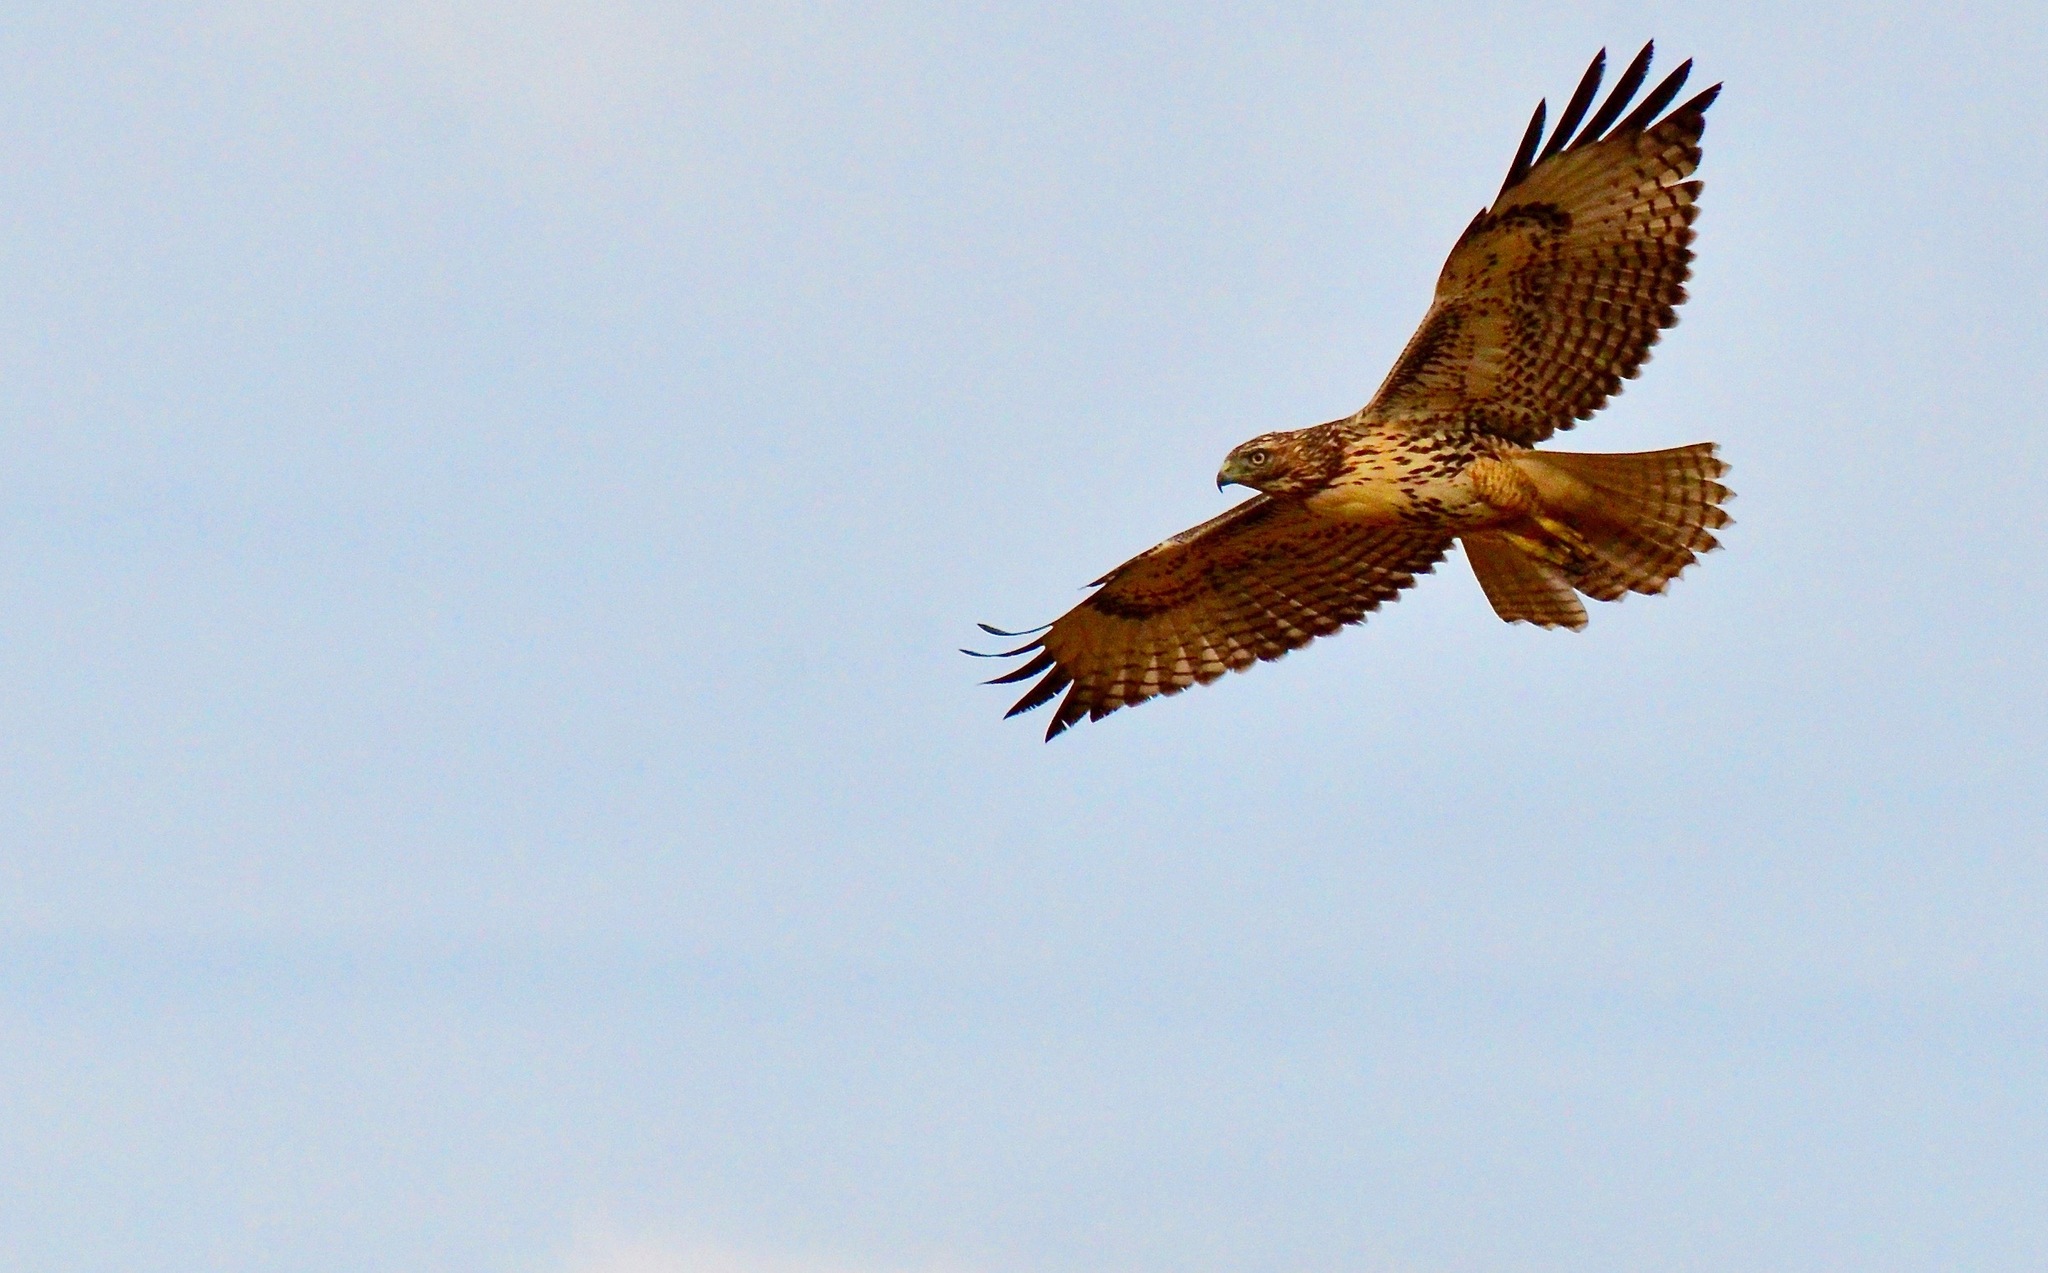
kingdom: Animalia
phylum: Chordata
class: Aves
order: Accipitriformes
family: Accipitridae
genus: Buteo
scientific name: Buteo jamaicensis
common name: Red-tailed hawk
